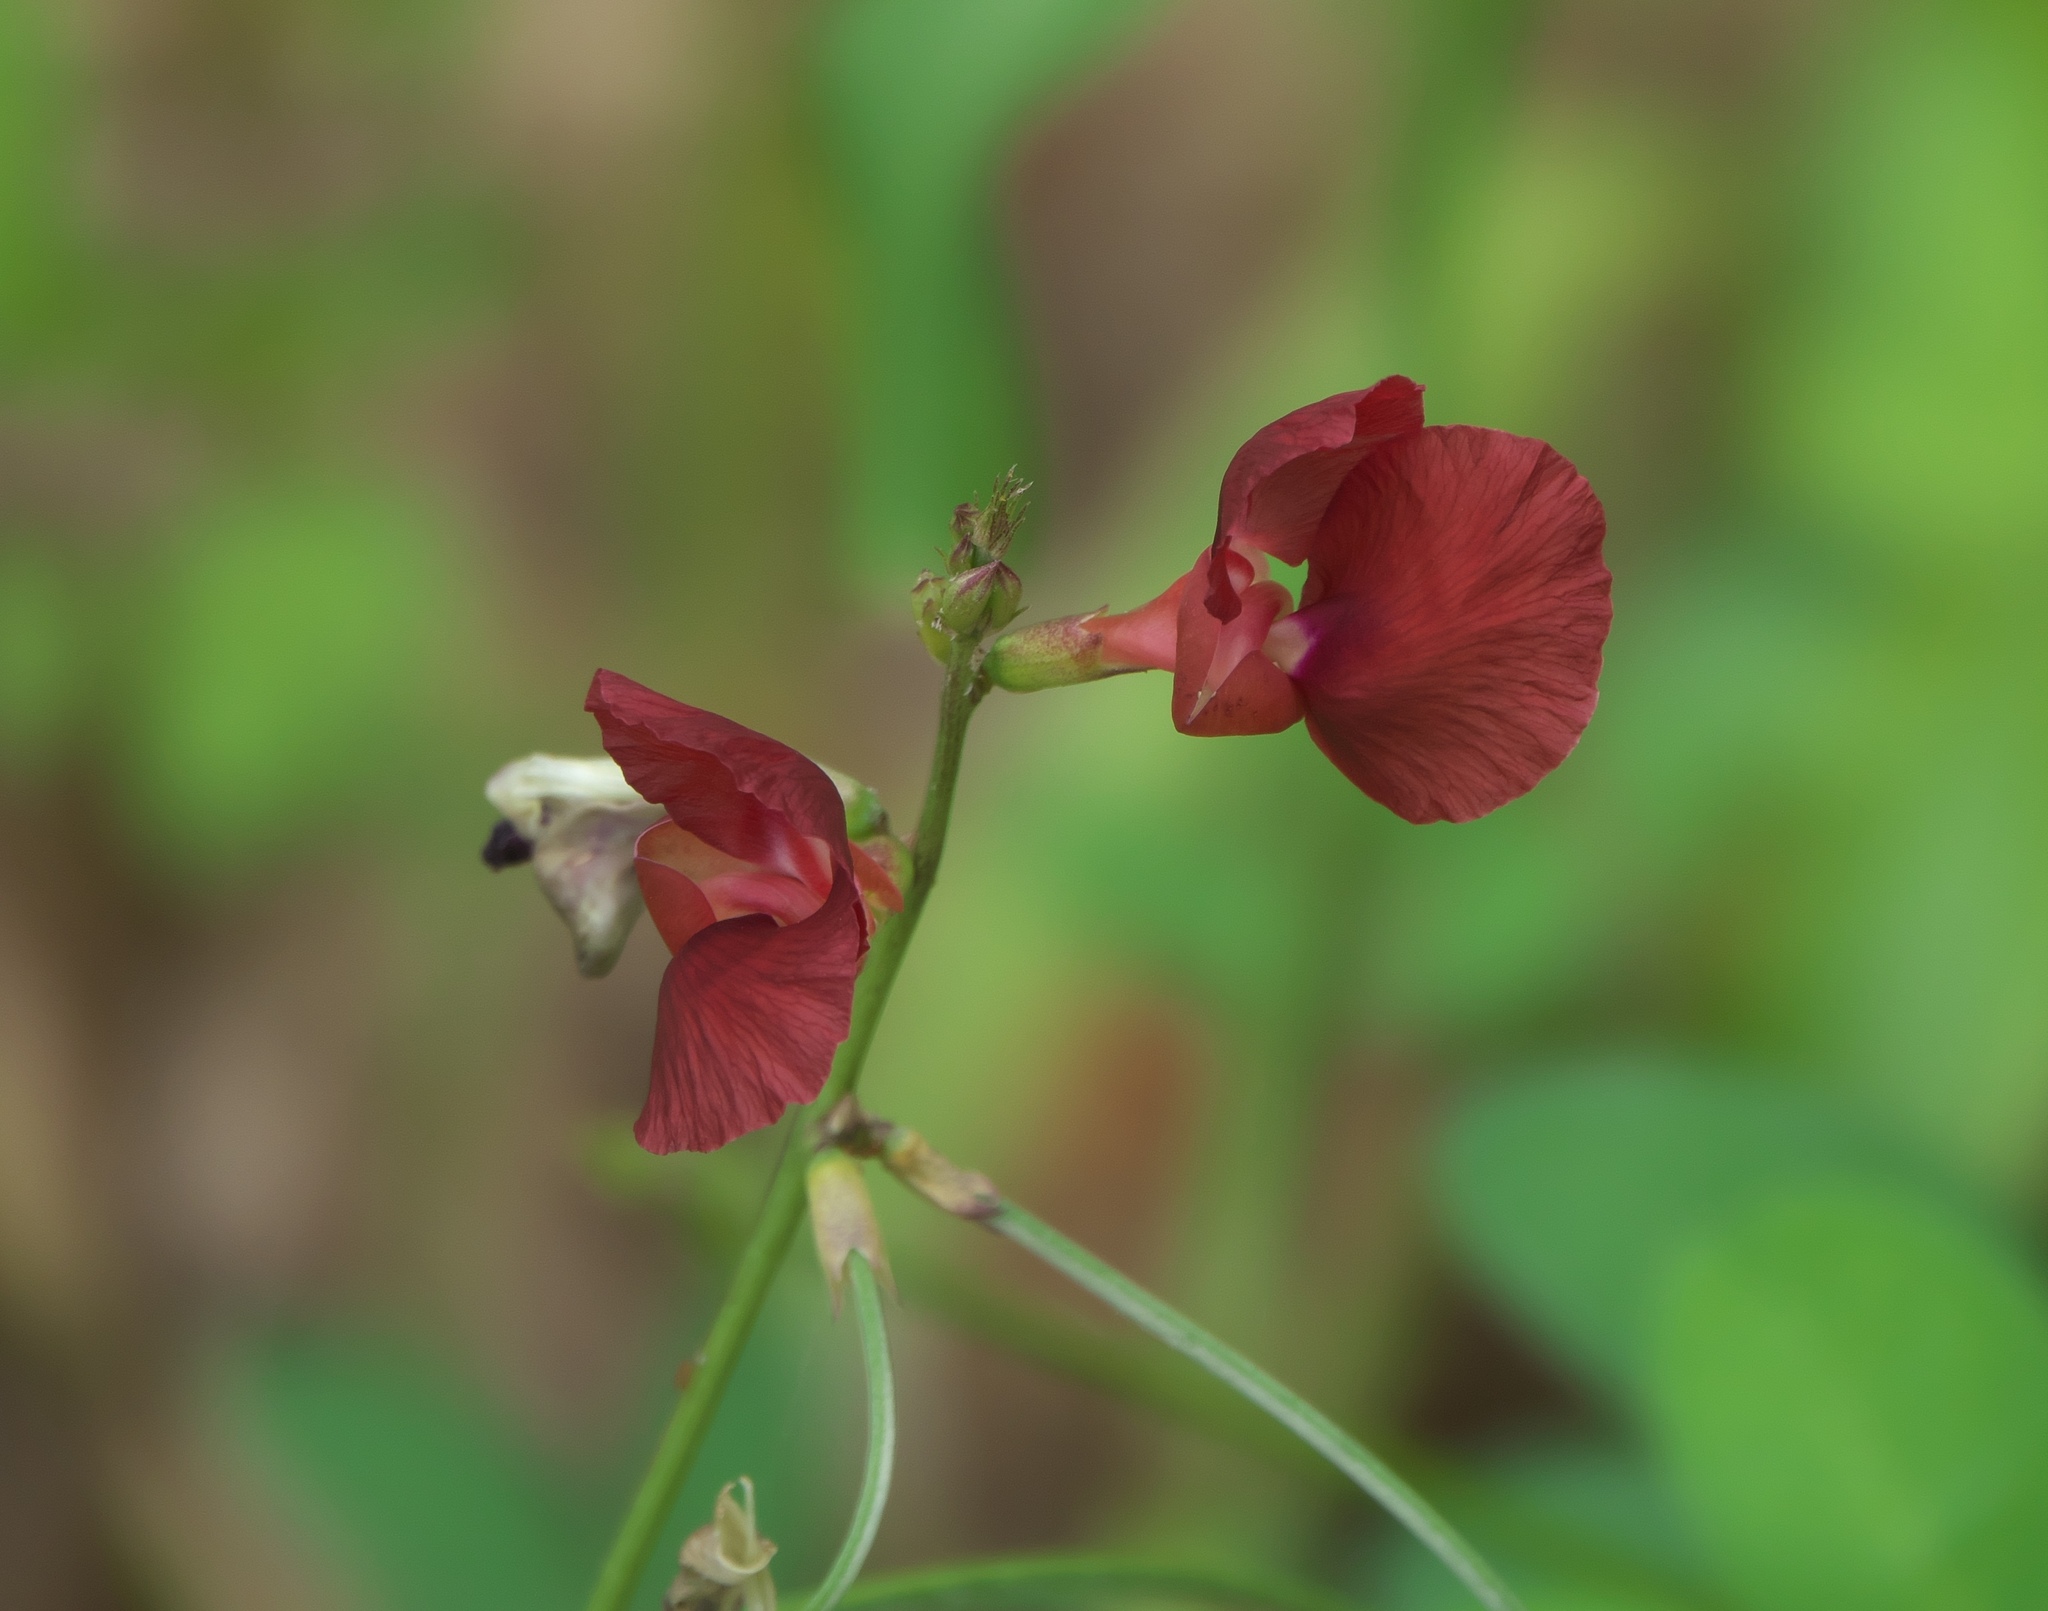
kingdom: Plantae
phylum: Tracheophyta
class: Magnoliopsida
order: Fabales
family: Fabaceae
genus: Macroptilium
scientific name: Macroptilium lathyroides
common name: Wild bushbean
